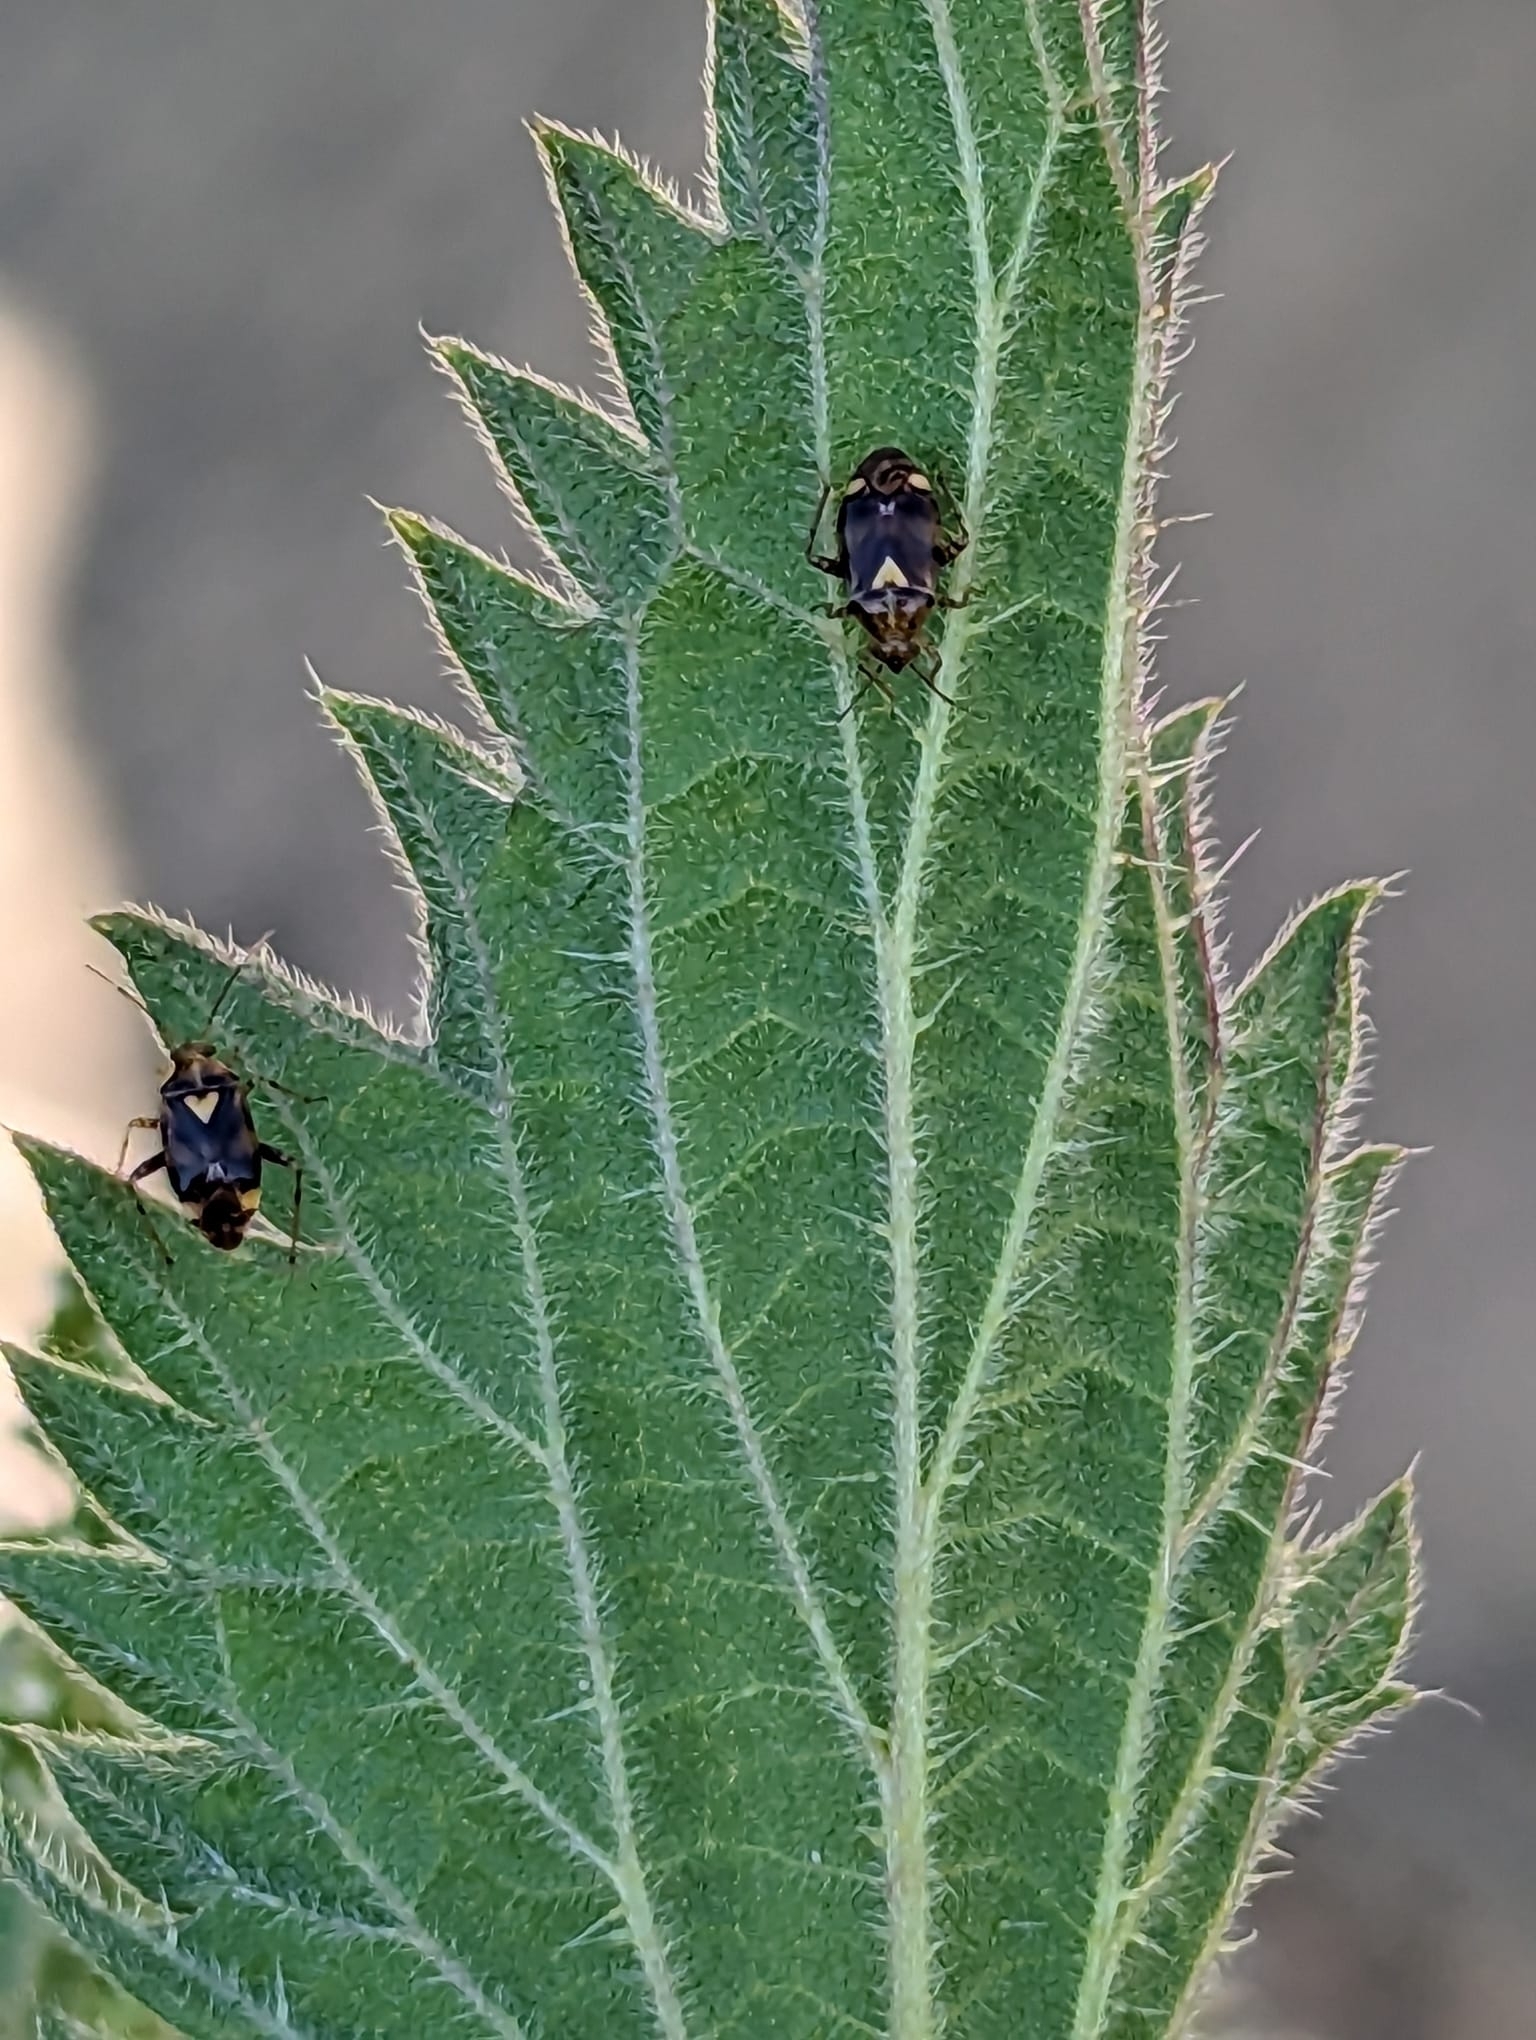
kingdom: Animalia
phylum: Arthropoda
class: Insecta
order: Hemiptera
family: Miridae
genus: Liocoris
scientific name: Liocoris tripustulatus
